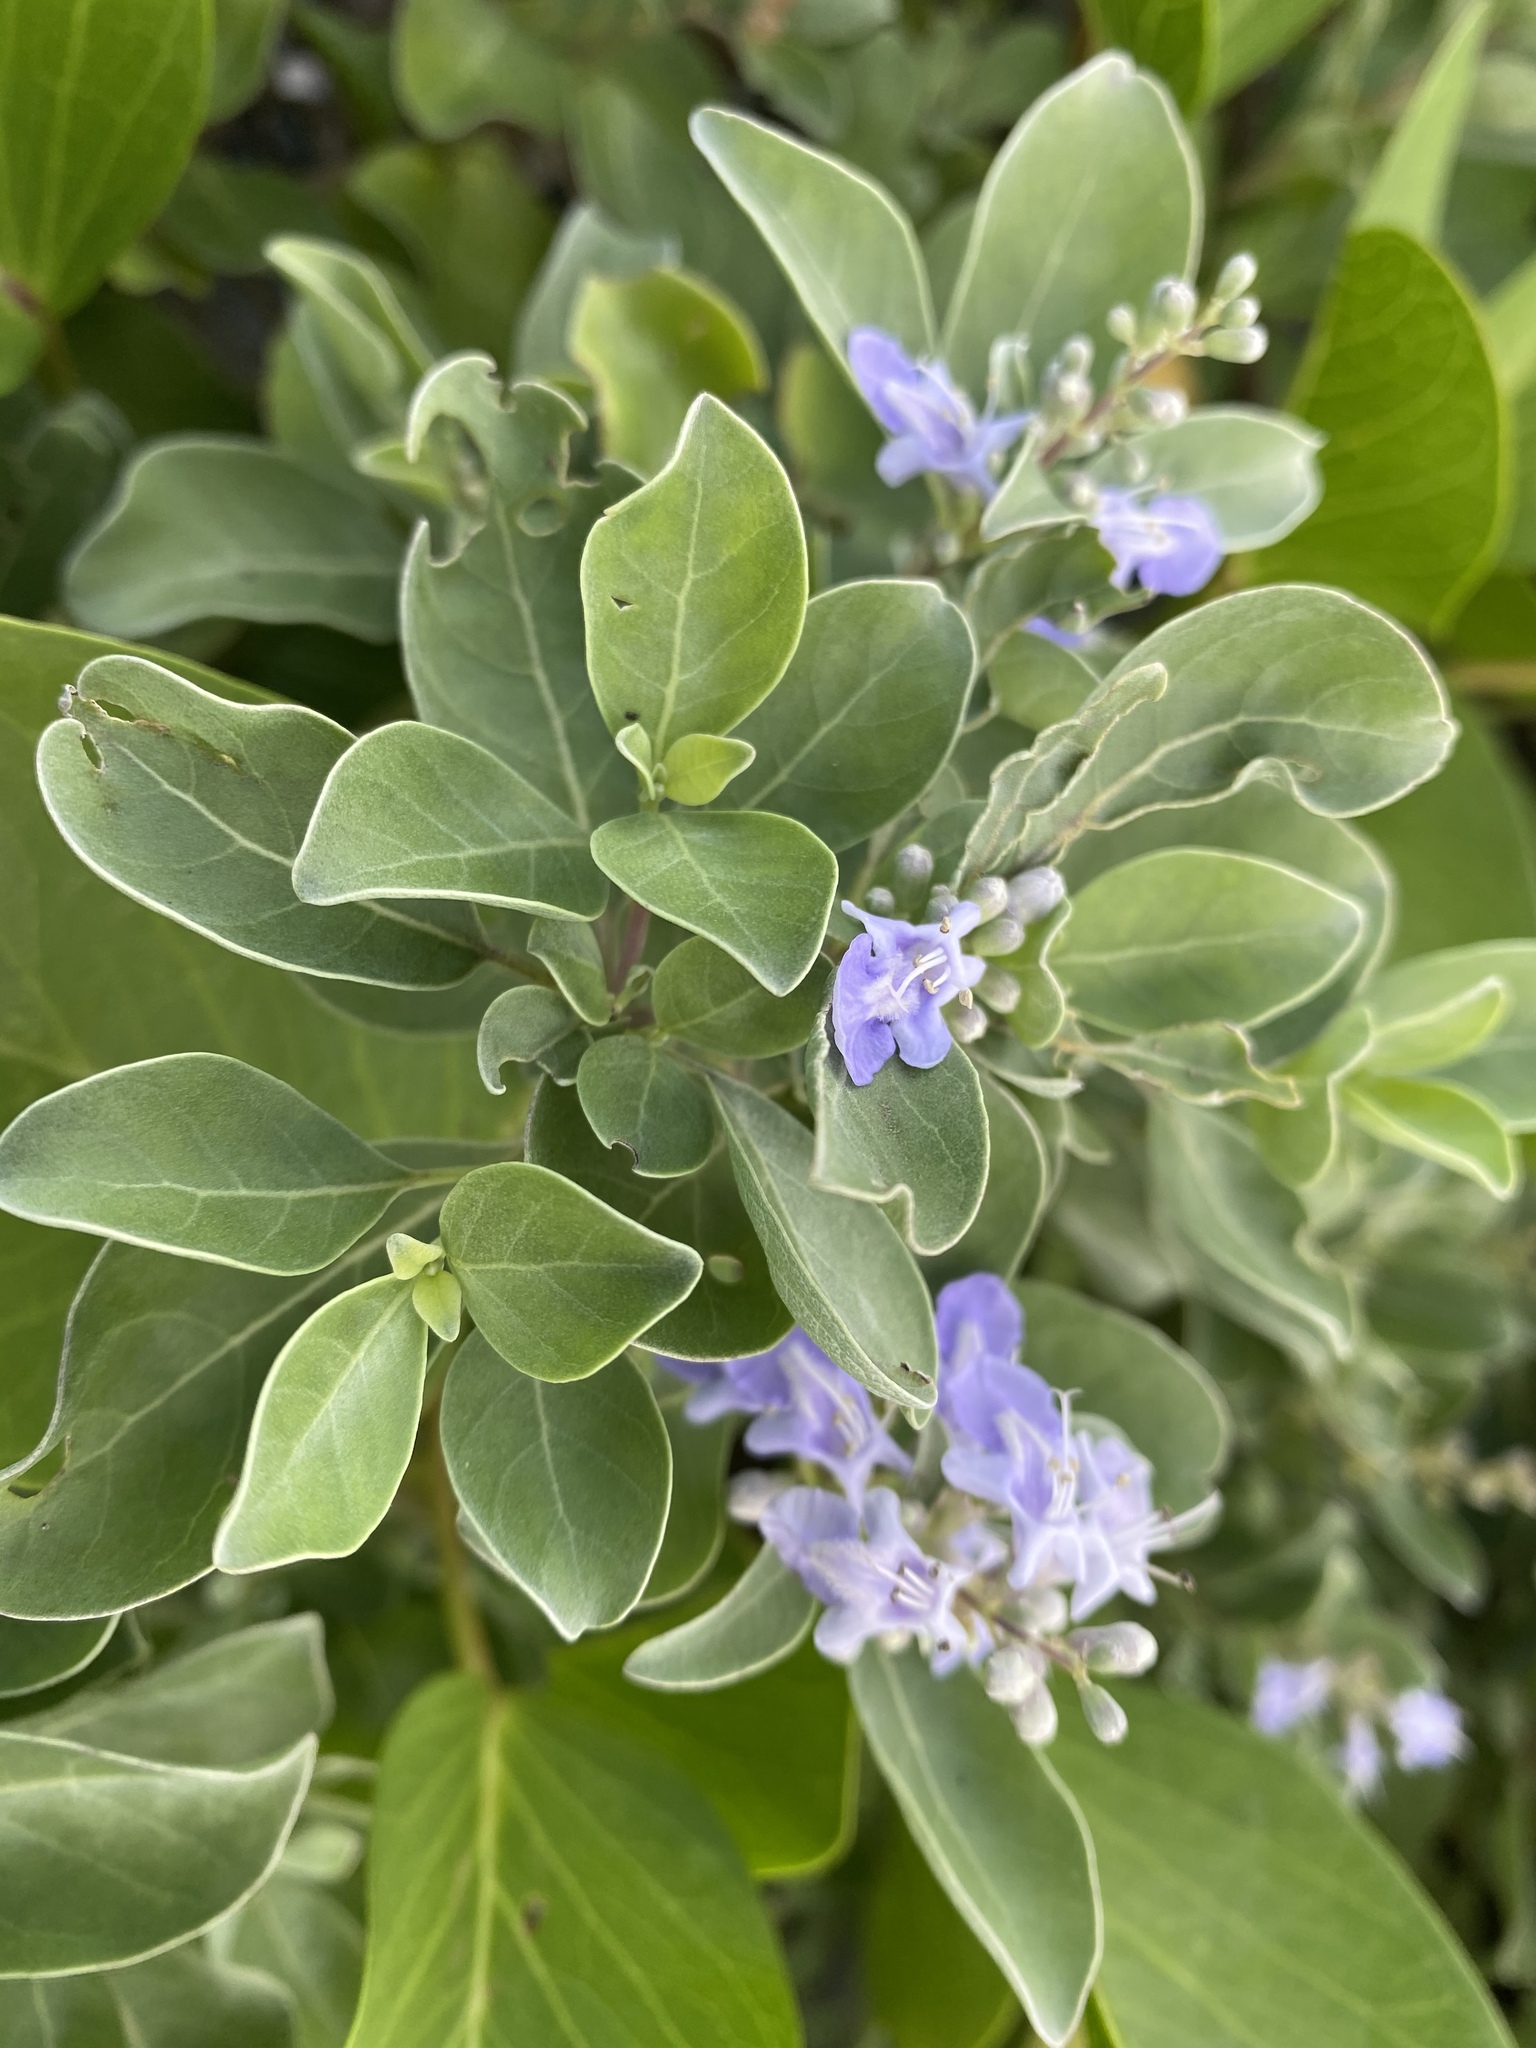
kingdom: Plantae
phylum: Tracheophyta
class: Magnoliopsida
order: Lamiales
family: Lamiaceae
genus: Vitex
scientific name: Vitex rotundifolia
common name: Beach vitex
